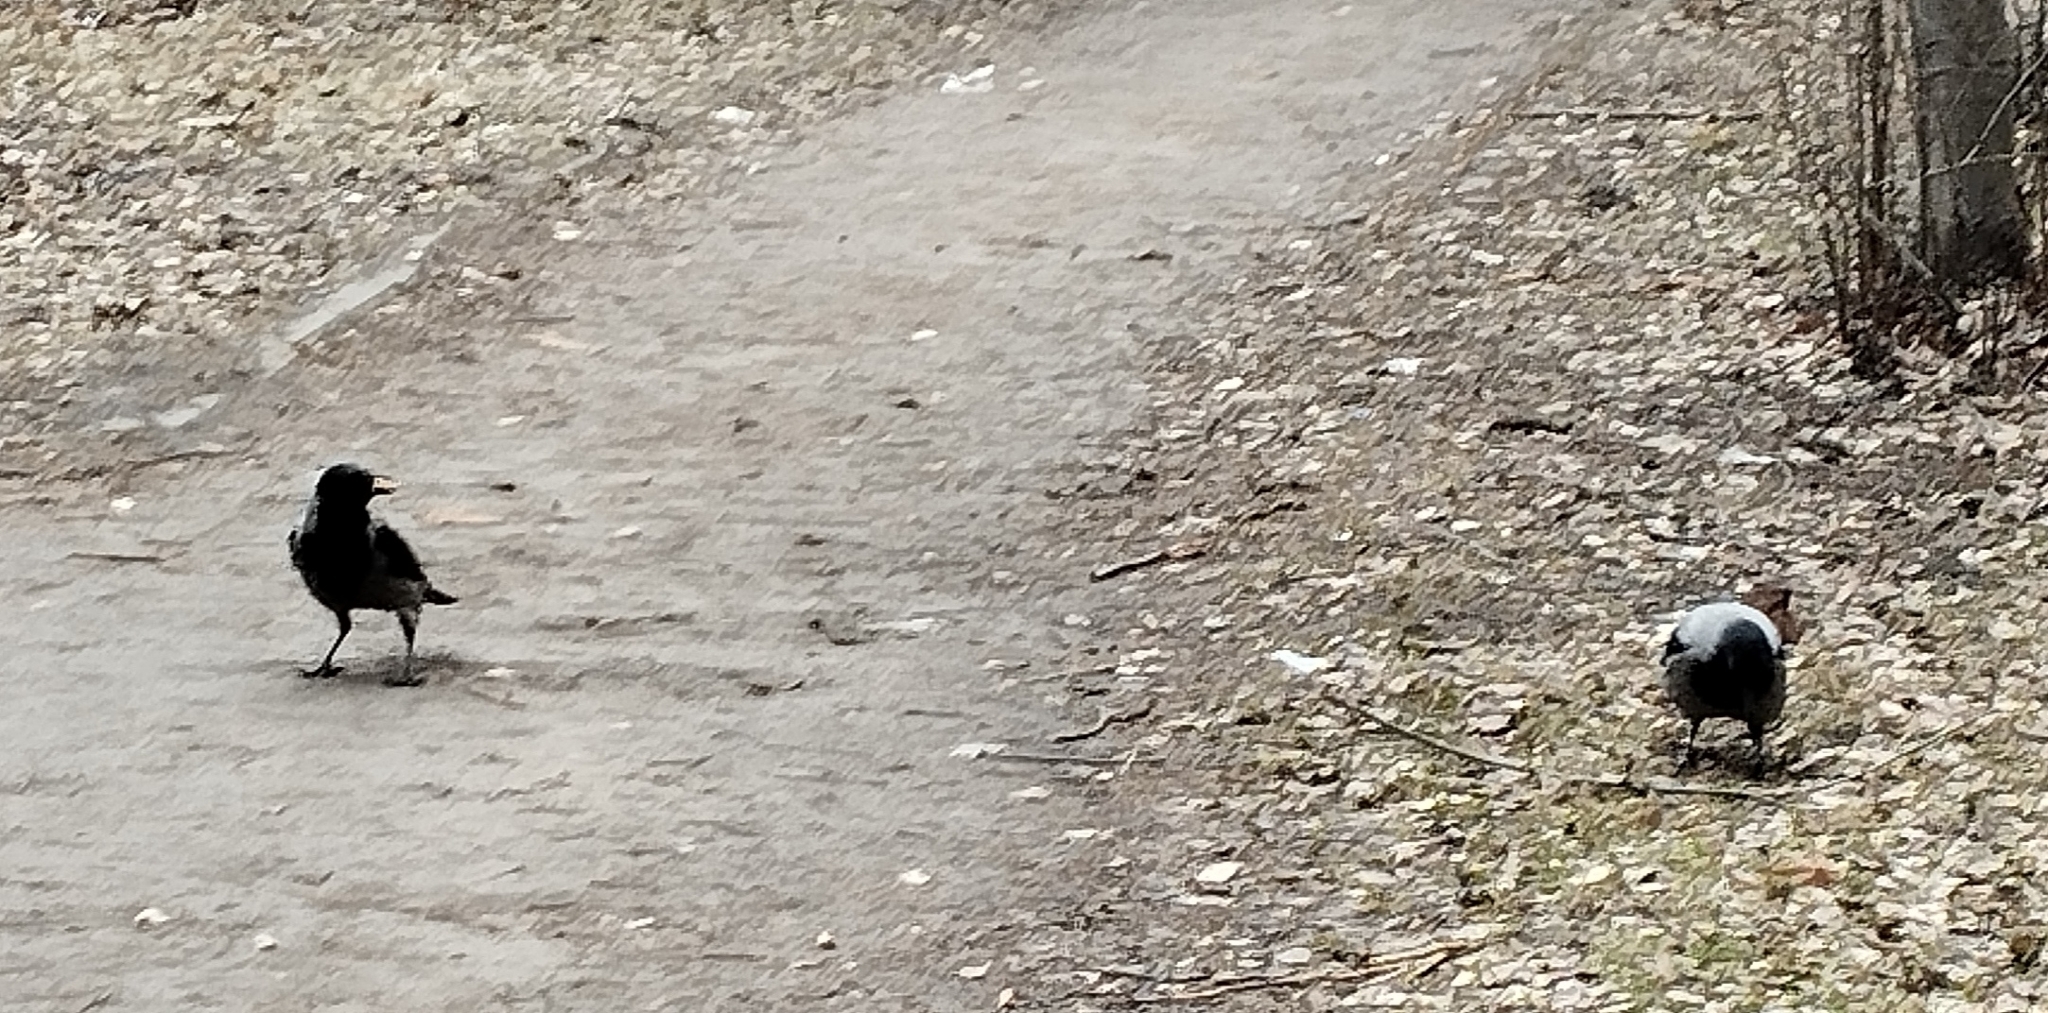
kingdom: Animalia
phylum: Chordata
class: Aves
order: Passeriformes
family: Corvidae
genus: Corvus
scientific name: Corvus cornix
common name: Hooded crow
